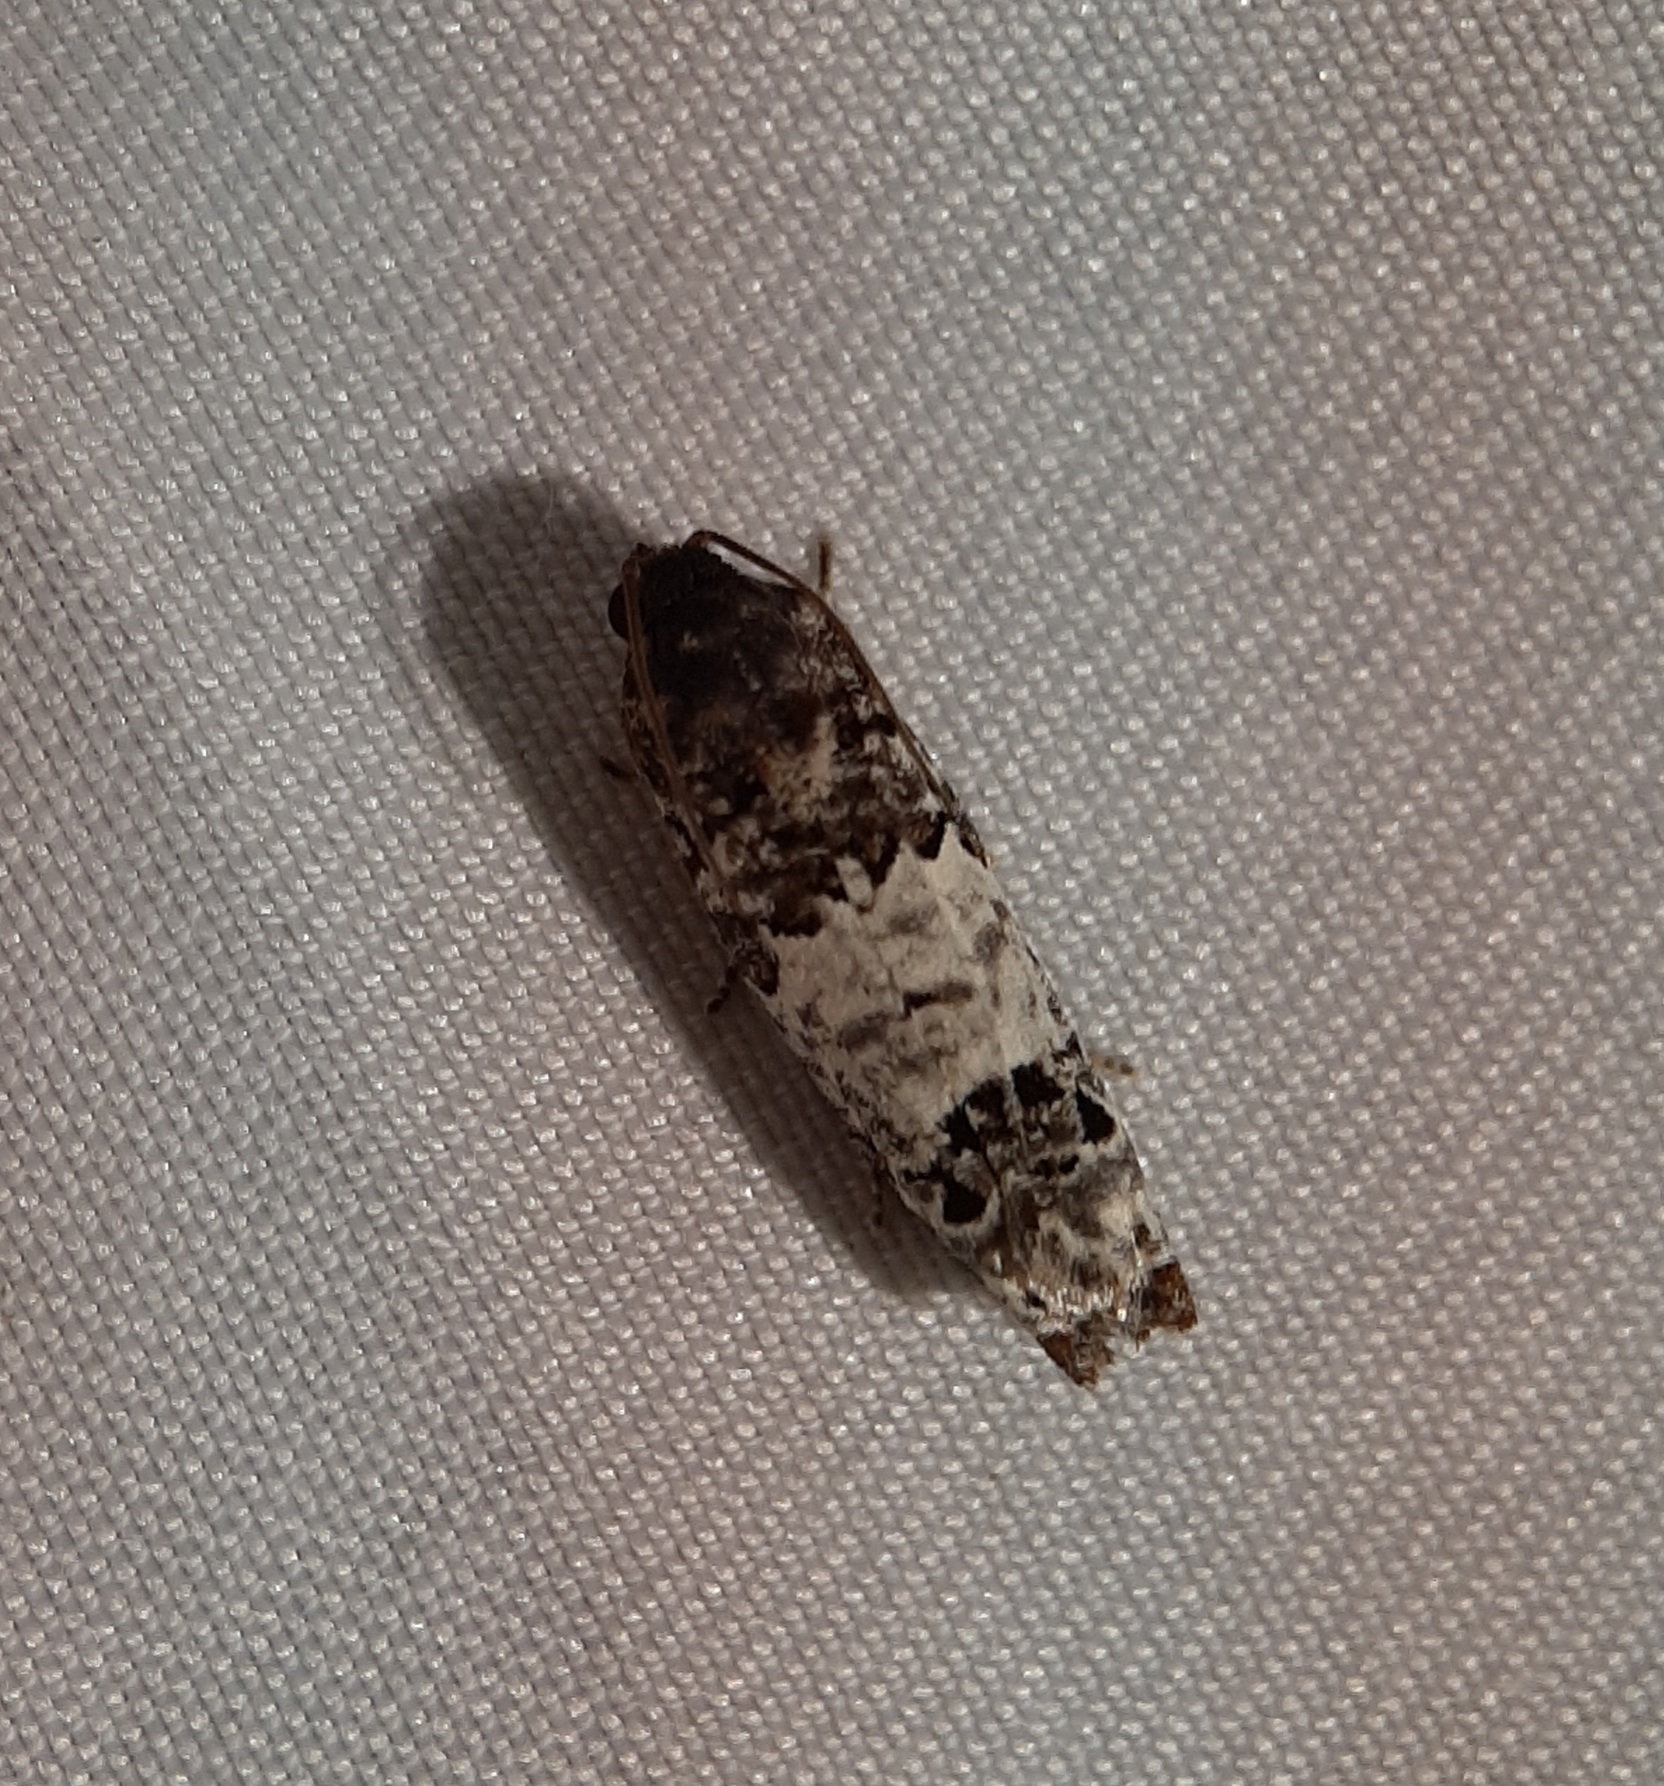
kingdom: Animalia
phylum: Arthropoda
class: Insecta
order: Lepidoptera
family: Tortricidae
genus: Epiblema
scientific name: Epiblema carolinana
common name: Gray-blotched epiblema moth
